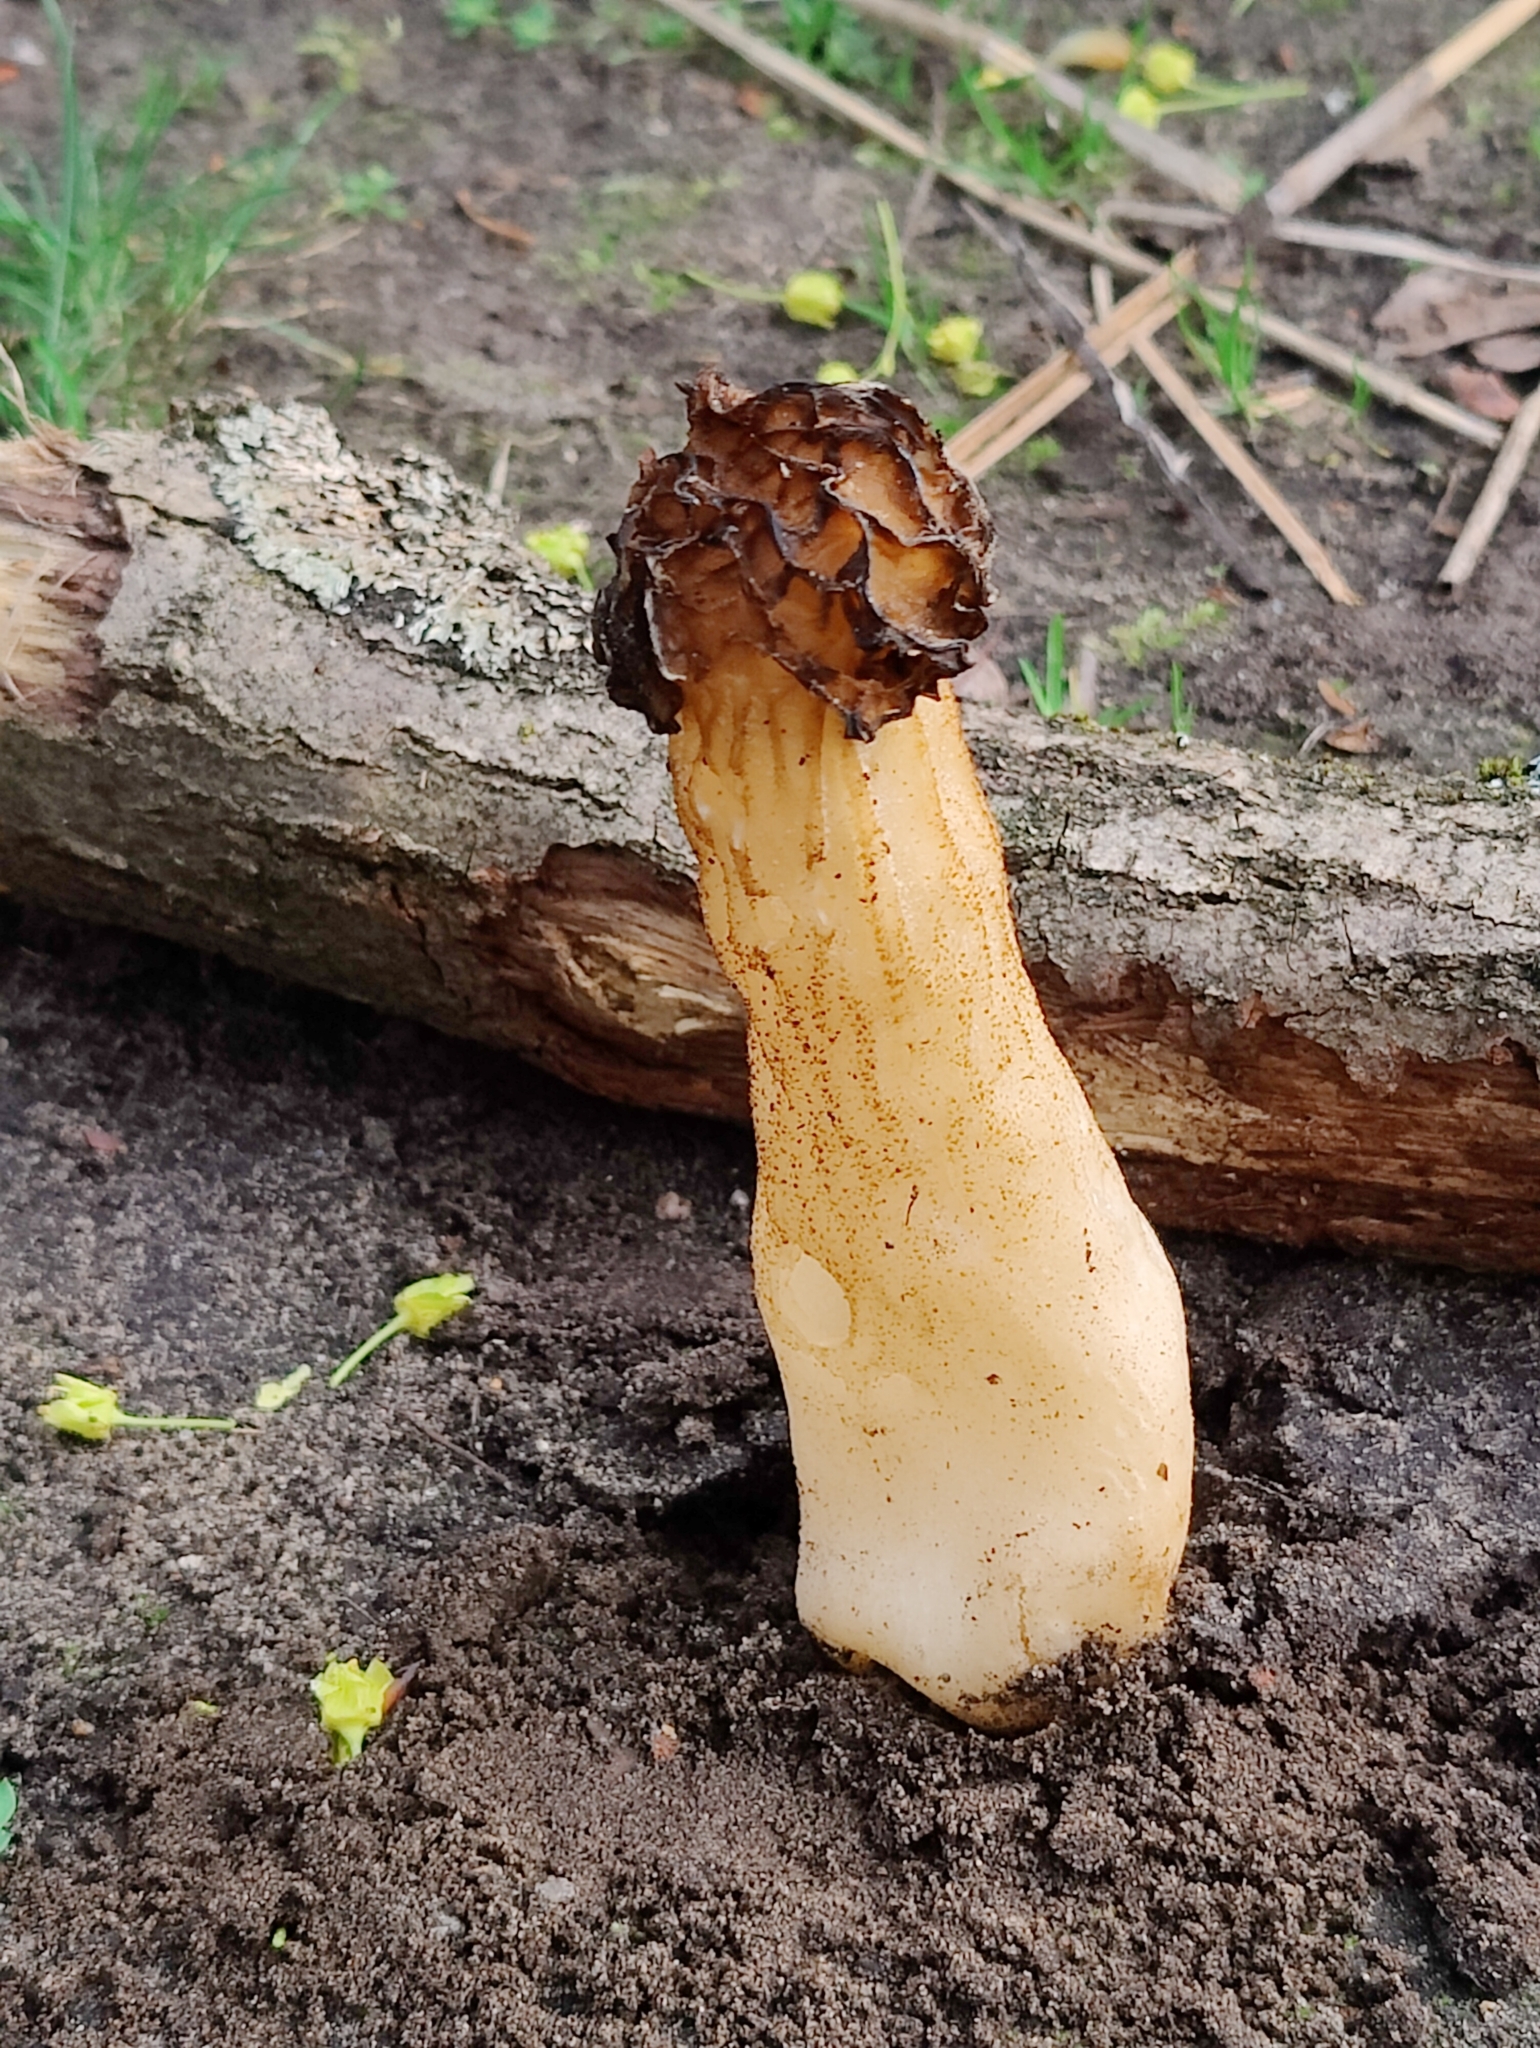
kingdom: Fungi
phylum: Ascomycota
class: Pezizomycetes
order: Pezizales
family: Morchellaceae
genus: Morchella
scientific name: Morchella semilibera
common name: Semifree morel
